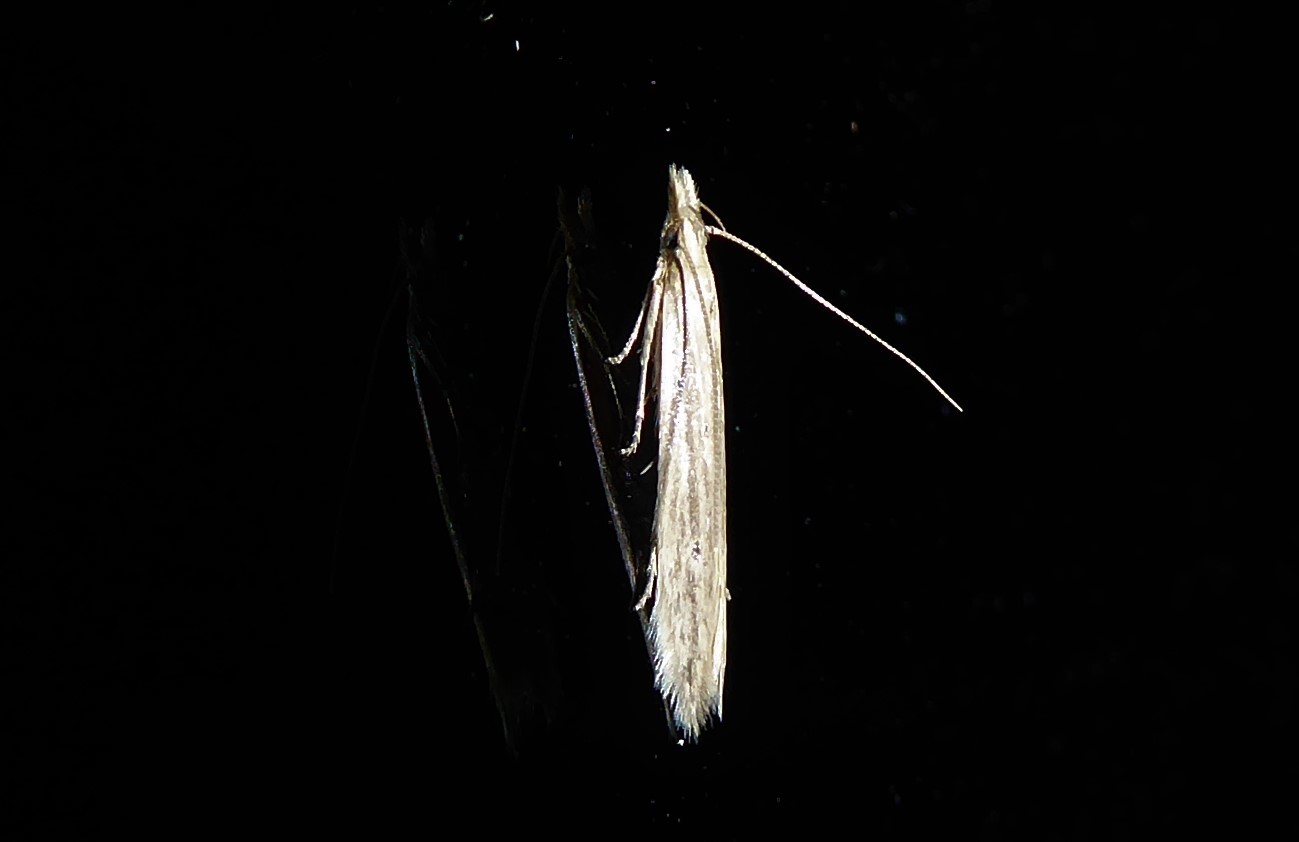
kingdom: Animalia
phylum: Arthropoda
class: Insecta
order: Lepidoptera
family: Gelechiidae
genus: Epiphthora
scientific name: Epiphthora calamogonus
